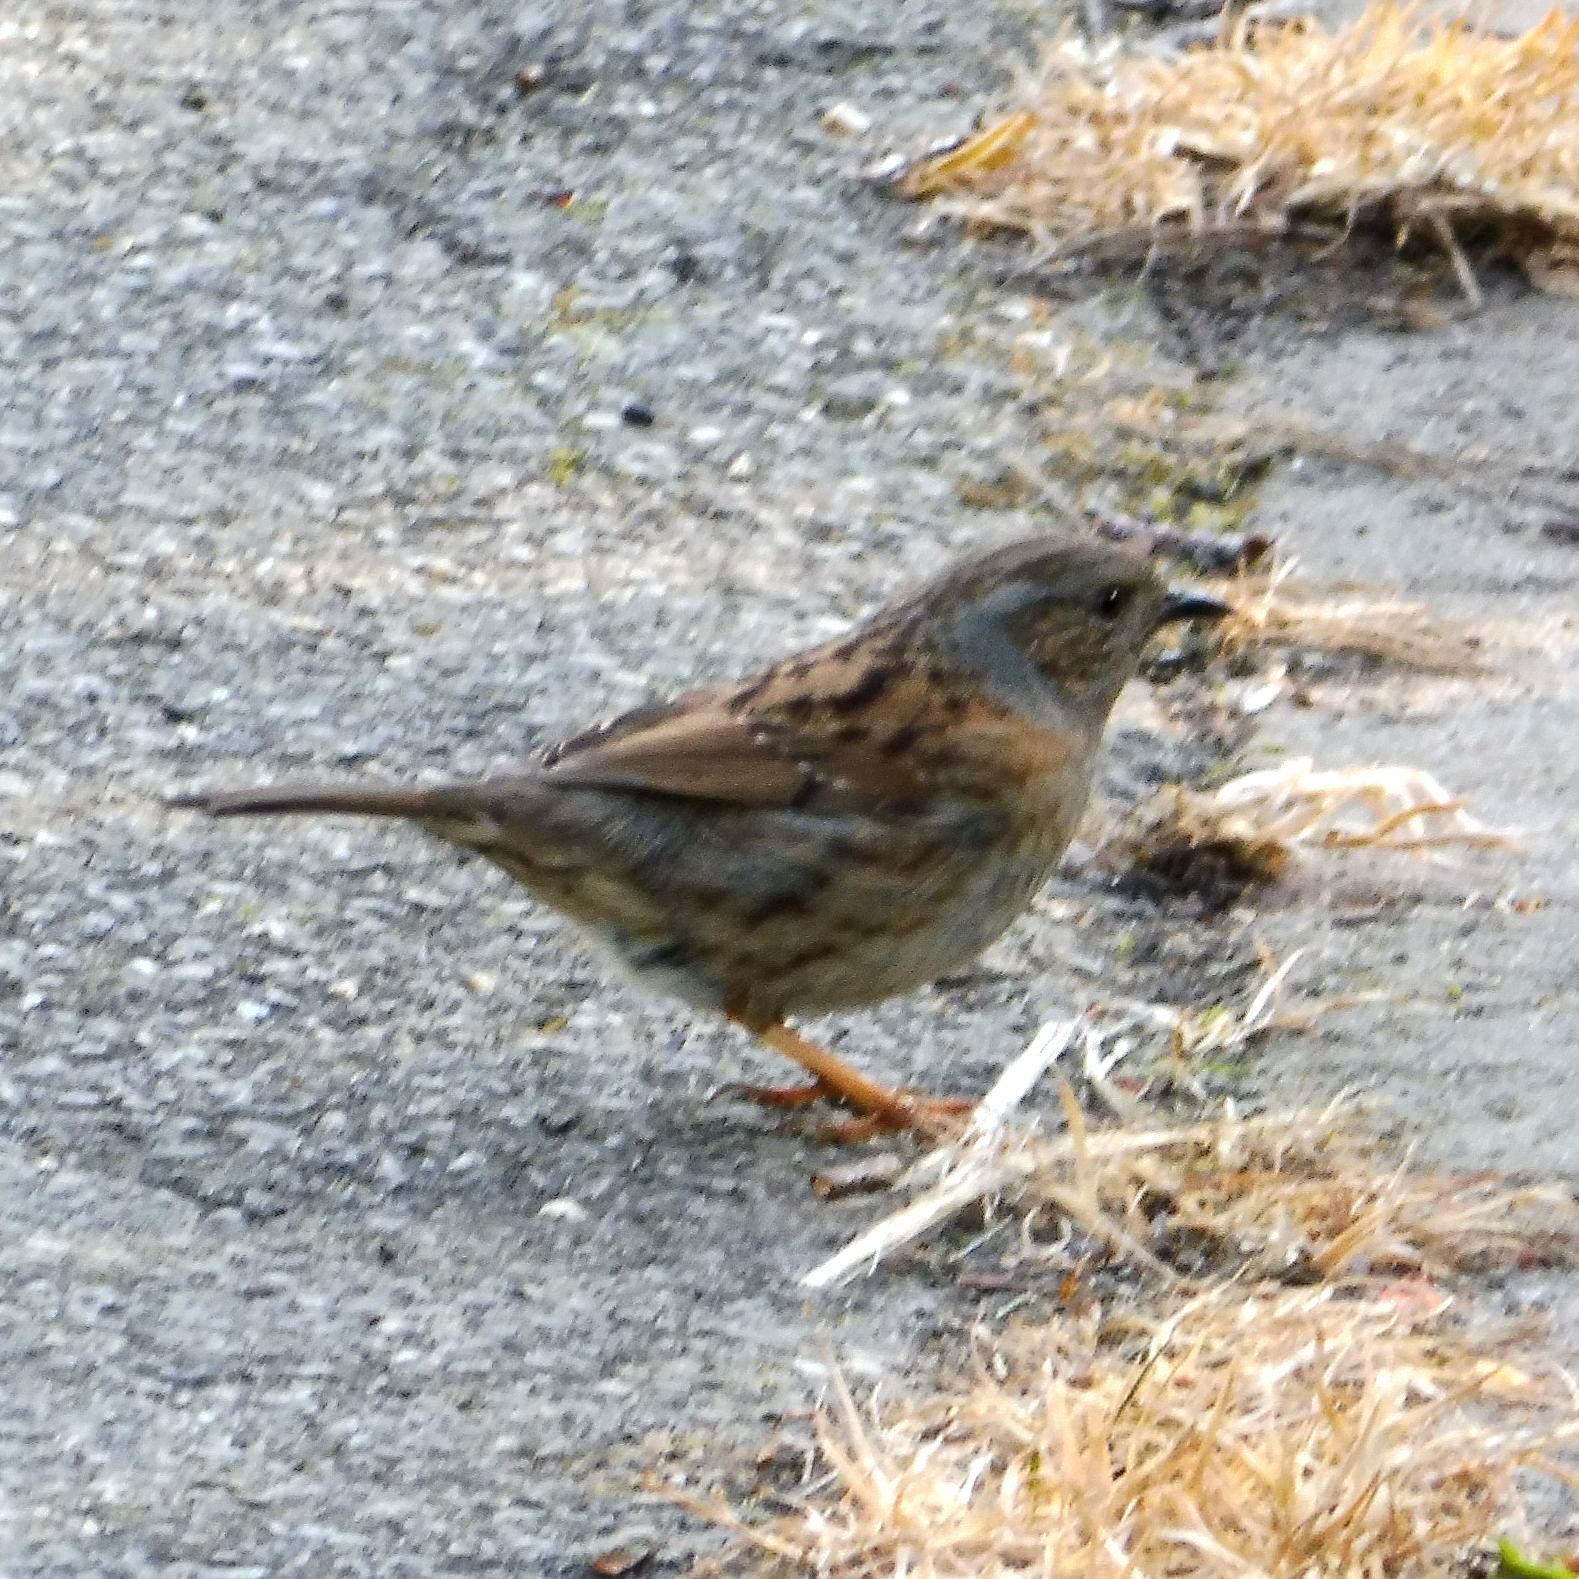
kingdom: Animalia
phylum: Chordata
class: Aves
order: Passeriformes
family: Prunellidae
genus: Prunella
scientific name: Prunella modularis
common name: Dunnock
